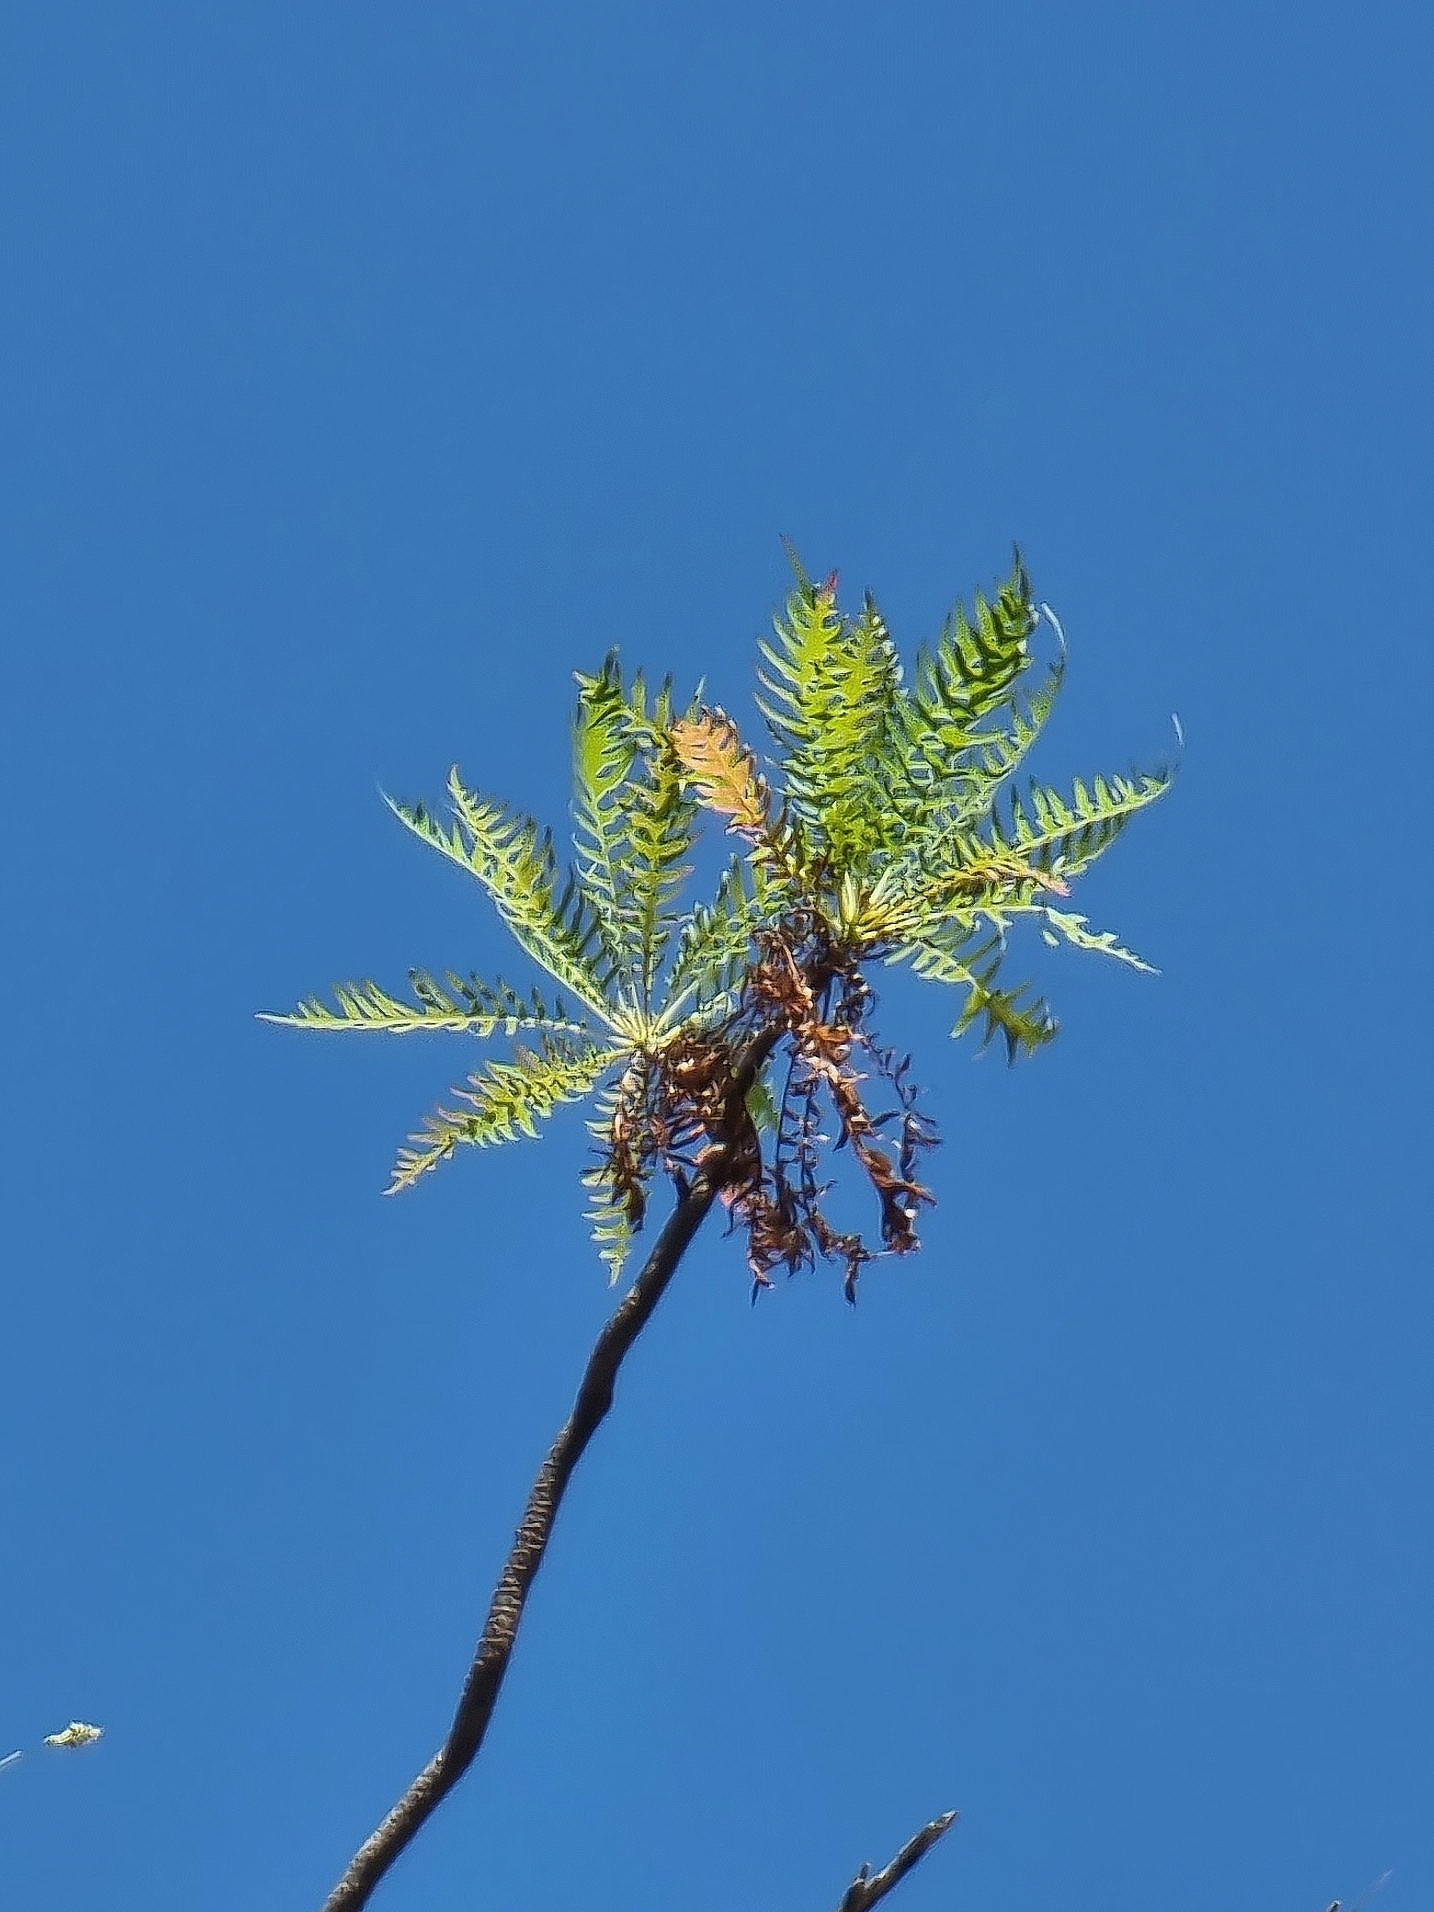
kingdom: Plantae
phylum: Tracheophyta
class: Magnoliopsida
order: Asterales
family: Asteraceae
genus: Sonchus
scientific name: Sonchus pinnatus
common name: Wing-leaved sow-thistle
